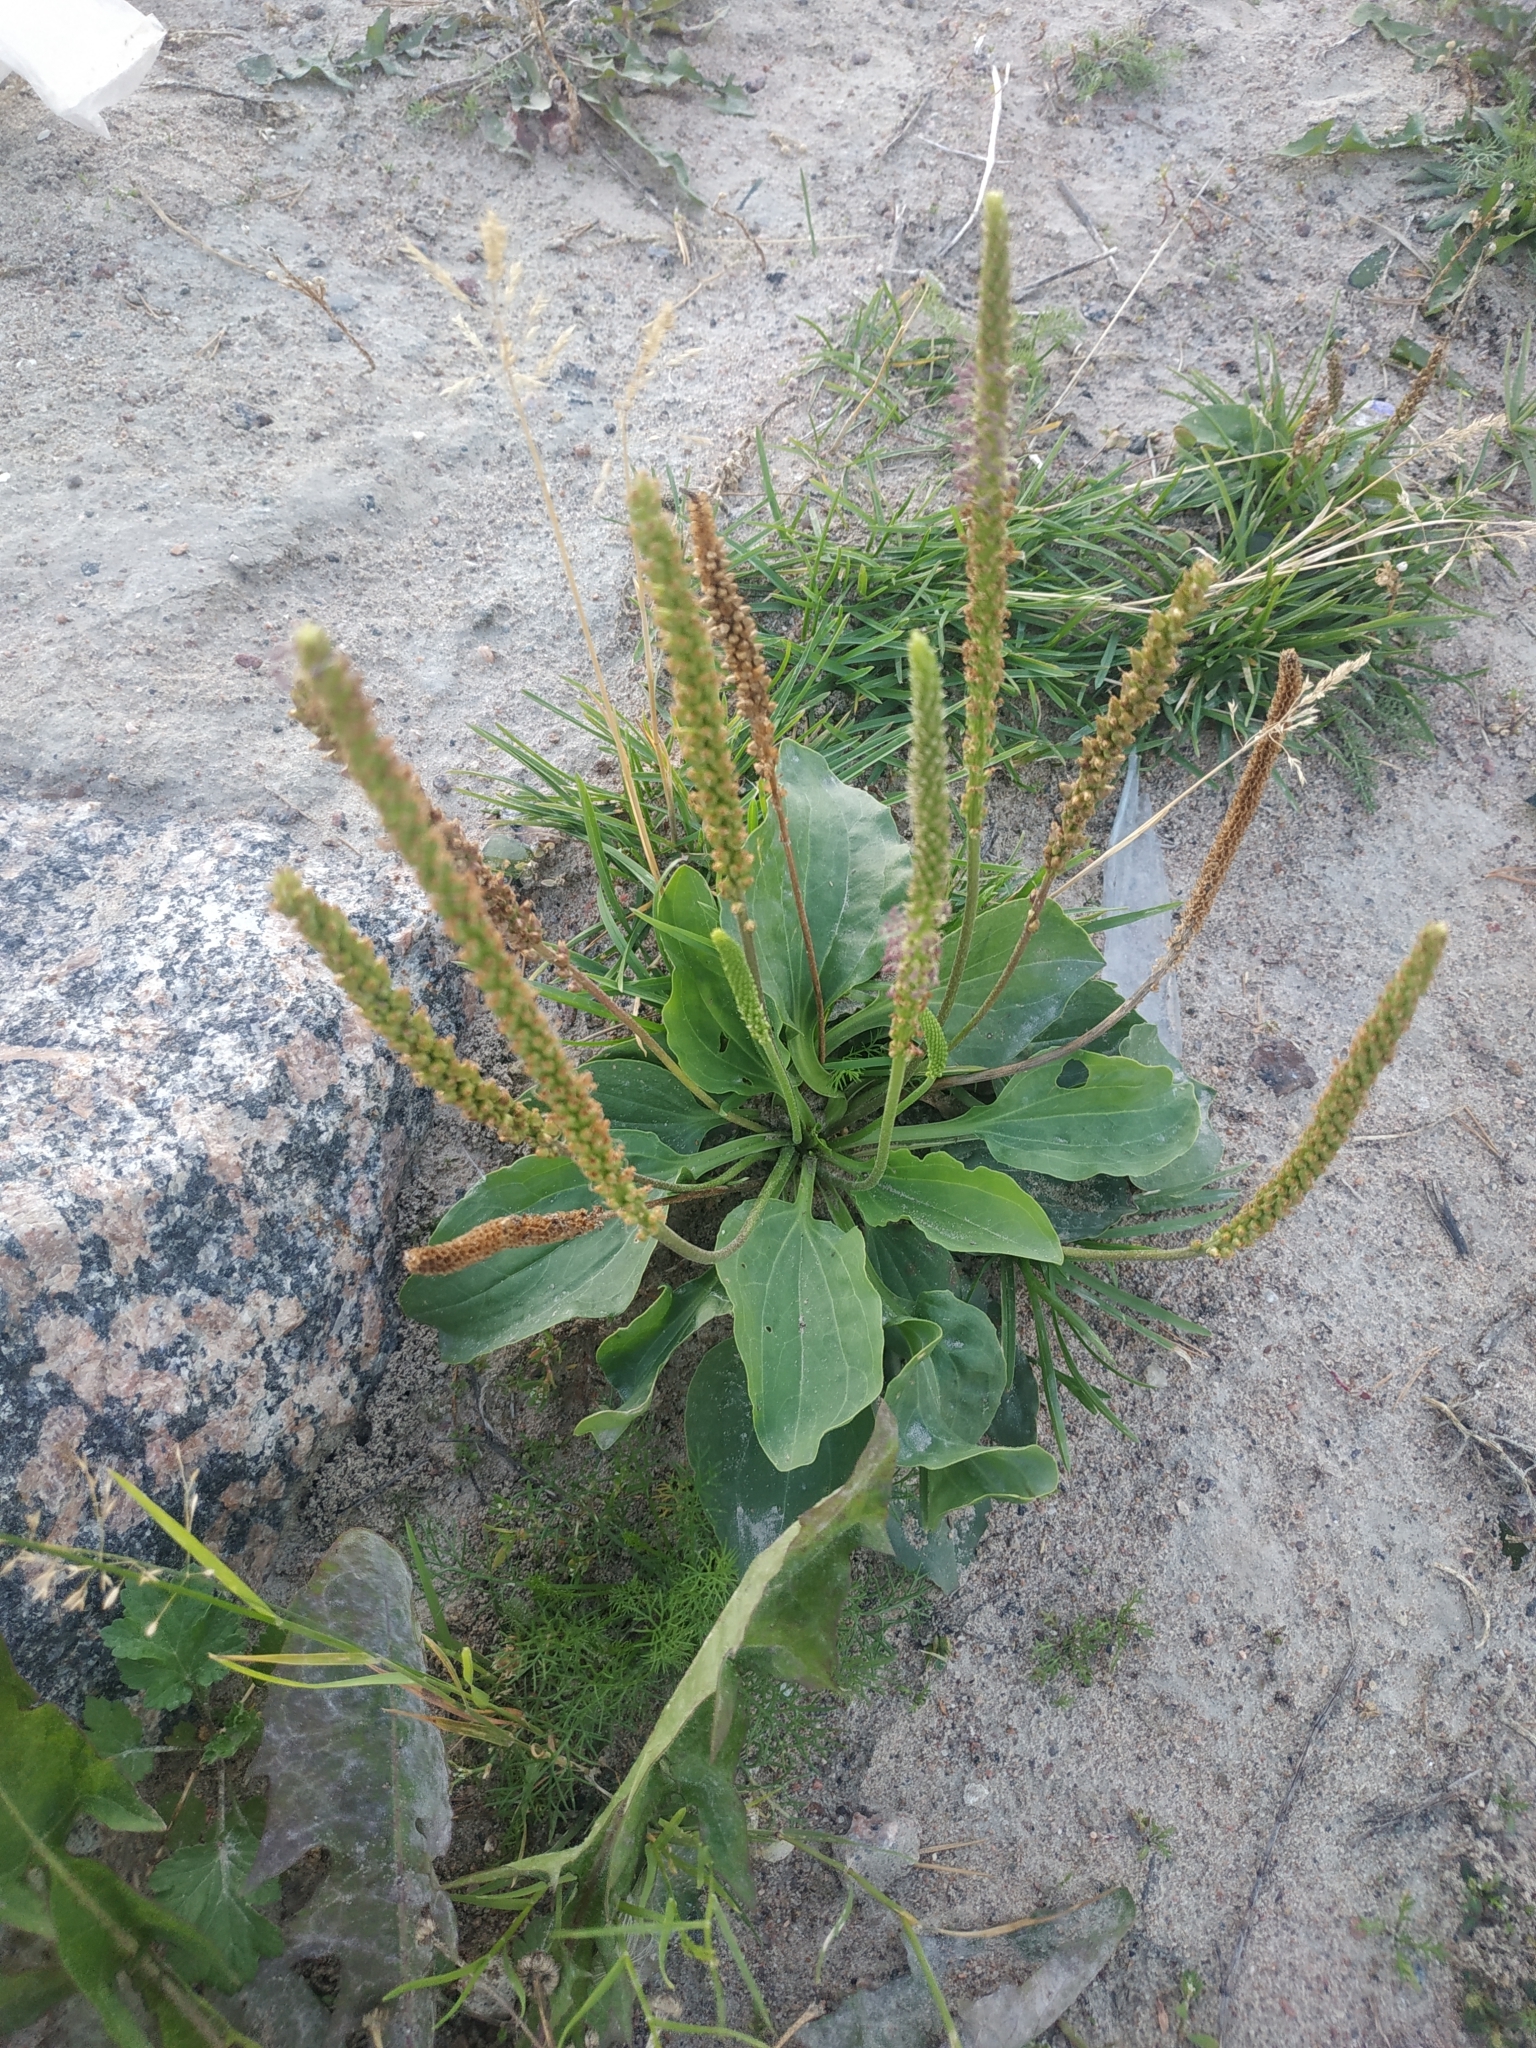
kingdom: Plantae
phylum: Tracheophyta
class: Magnoliopsida
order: Lamiales
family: Plantaginaceae
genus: Plantago
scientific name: Plantago major
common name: Common plantain
